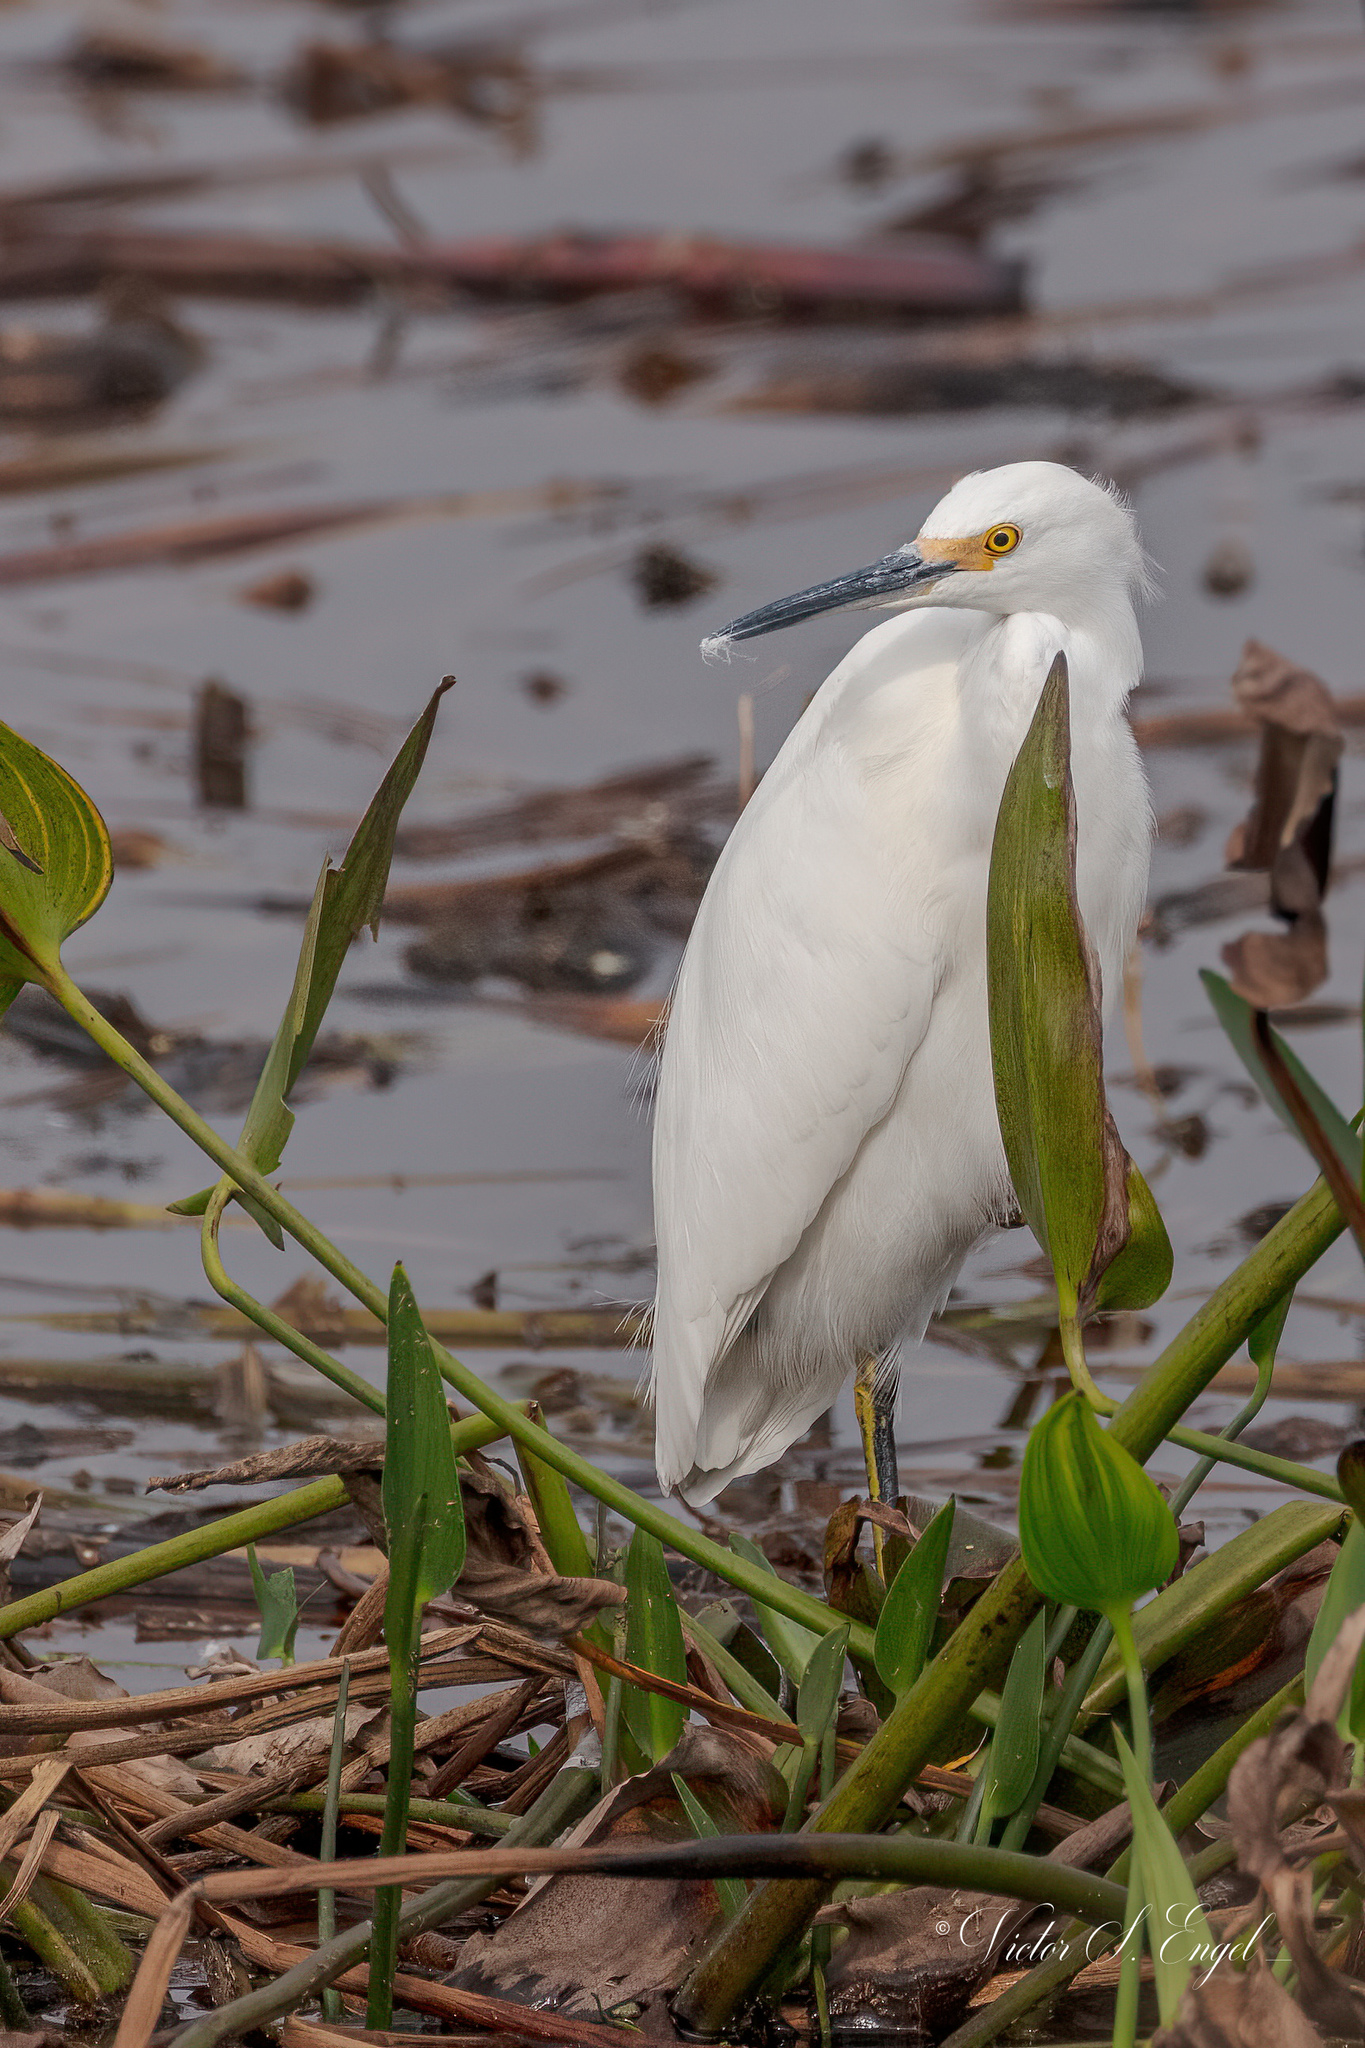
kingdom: Animalia
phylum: Chordata
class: Aves
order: Pelecaniformes
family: Ardeidae
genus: Egretta
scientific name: Egretta thula
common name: Snowy egret
